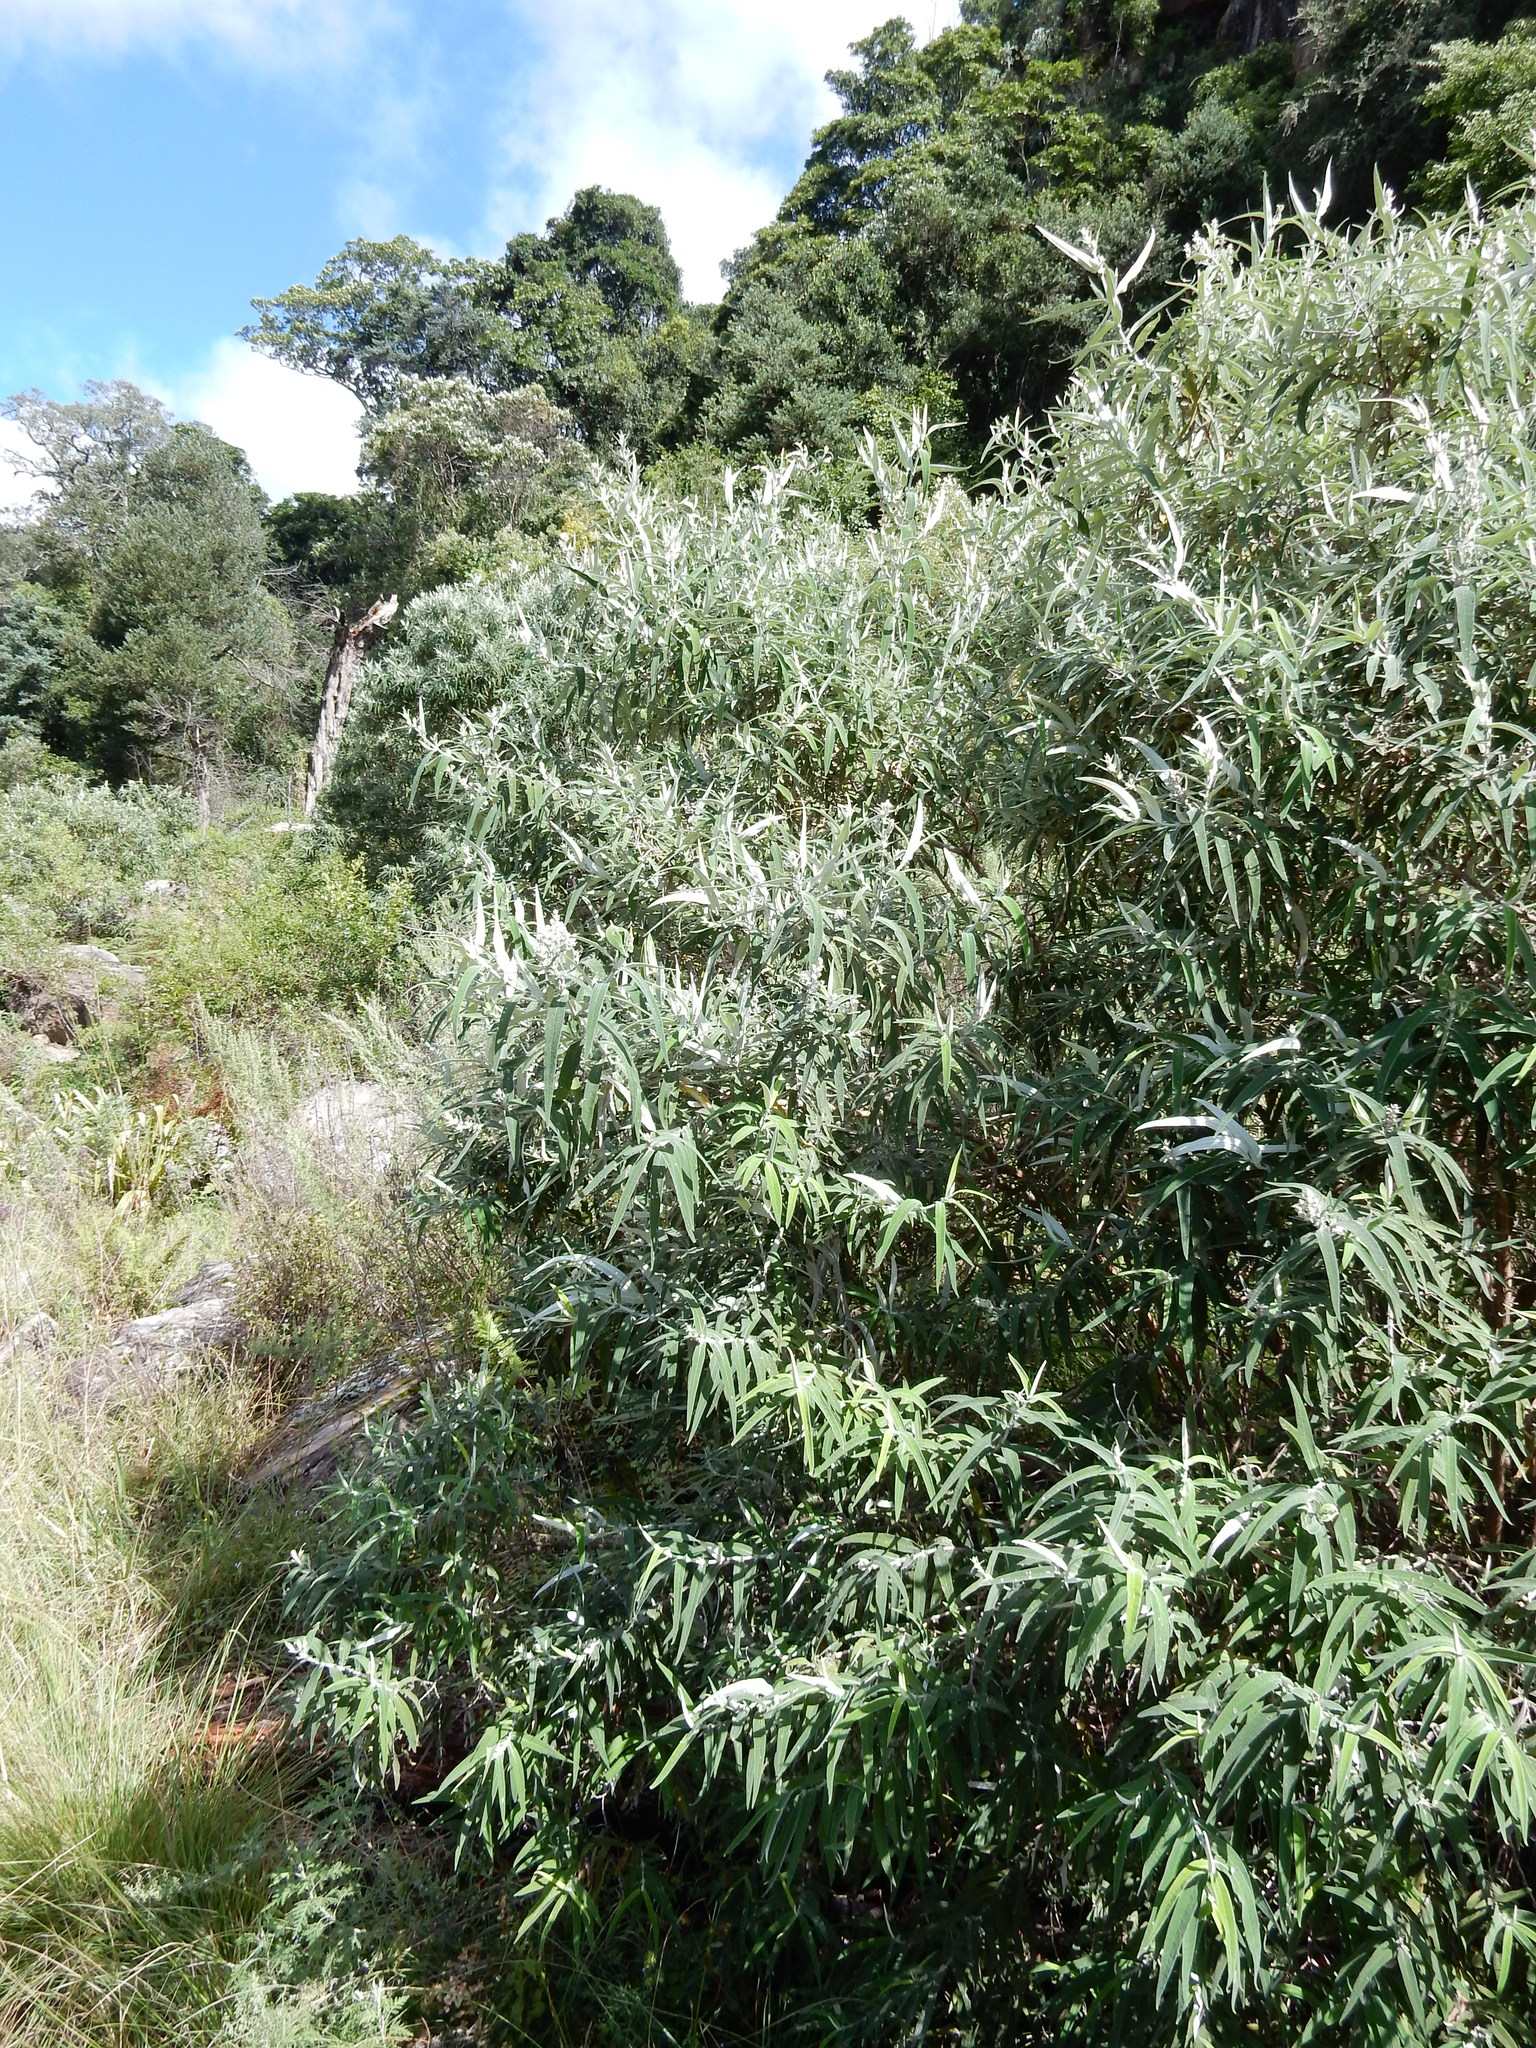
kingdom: Plantae
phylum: Tracheophyta
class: Magnoliopsida
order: Lamiales
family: Scrophulariaceae
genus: Buddleja
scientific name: Buddleja salviifolia
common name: Sagewood
